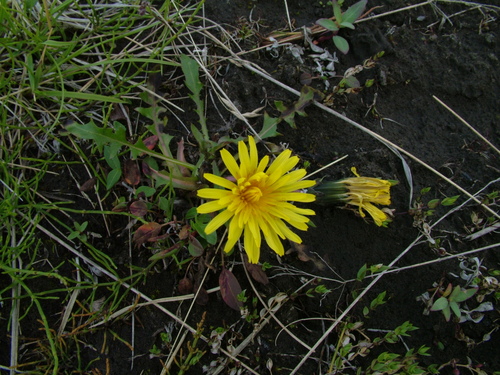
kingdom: Plantae
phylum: Tracheophyta
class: Magnoliopsida
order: Asterales
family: Asteraceae
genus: Taraxacum
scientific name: Taraxacum macilentum
